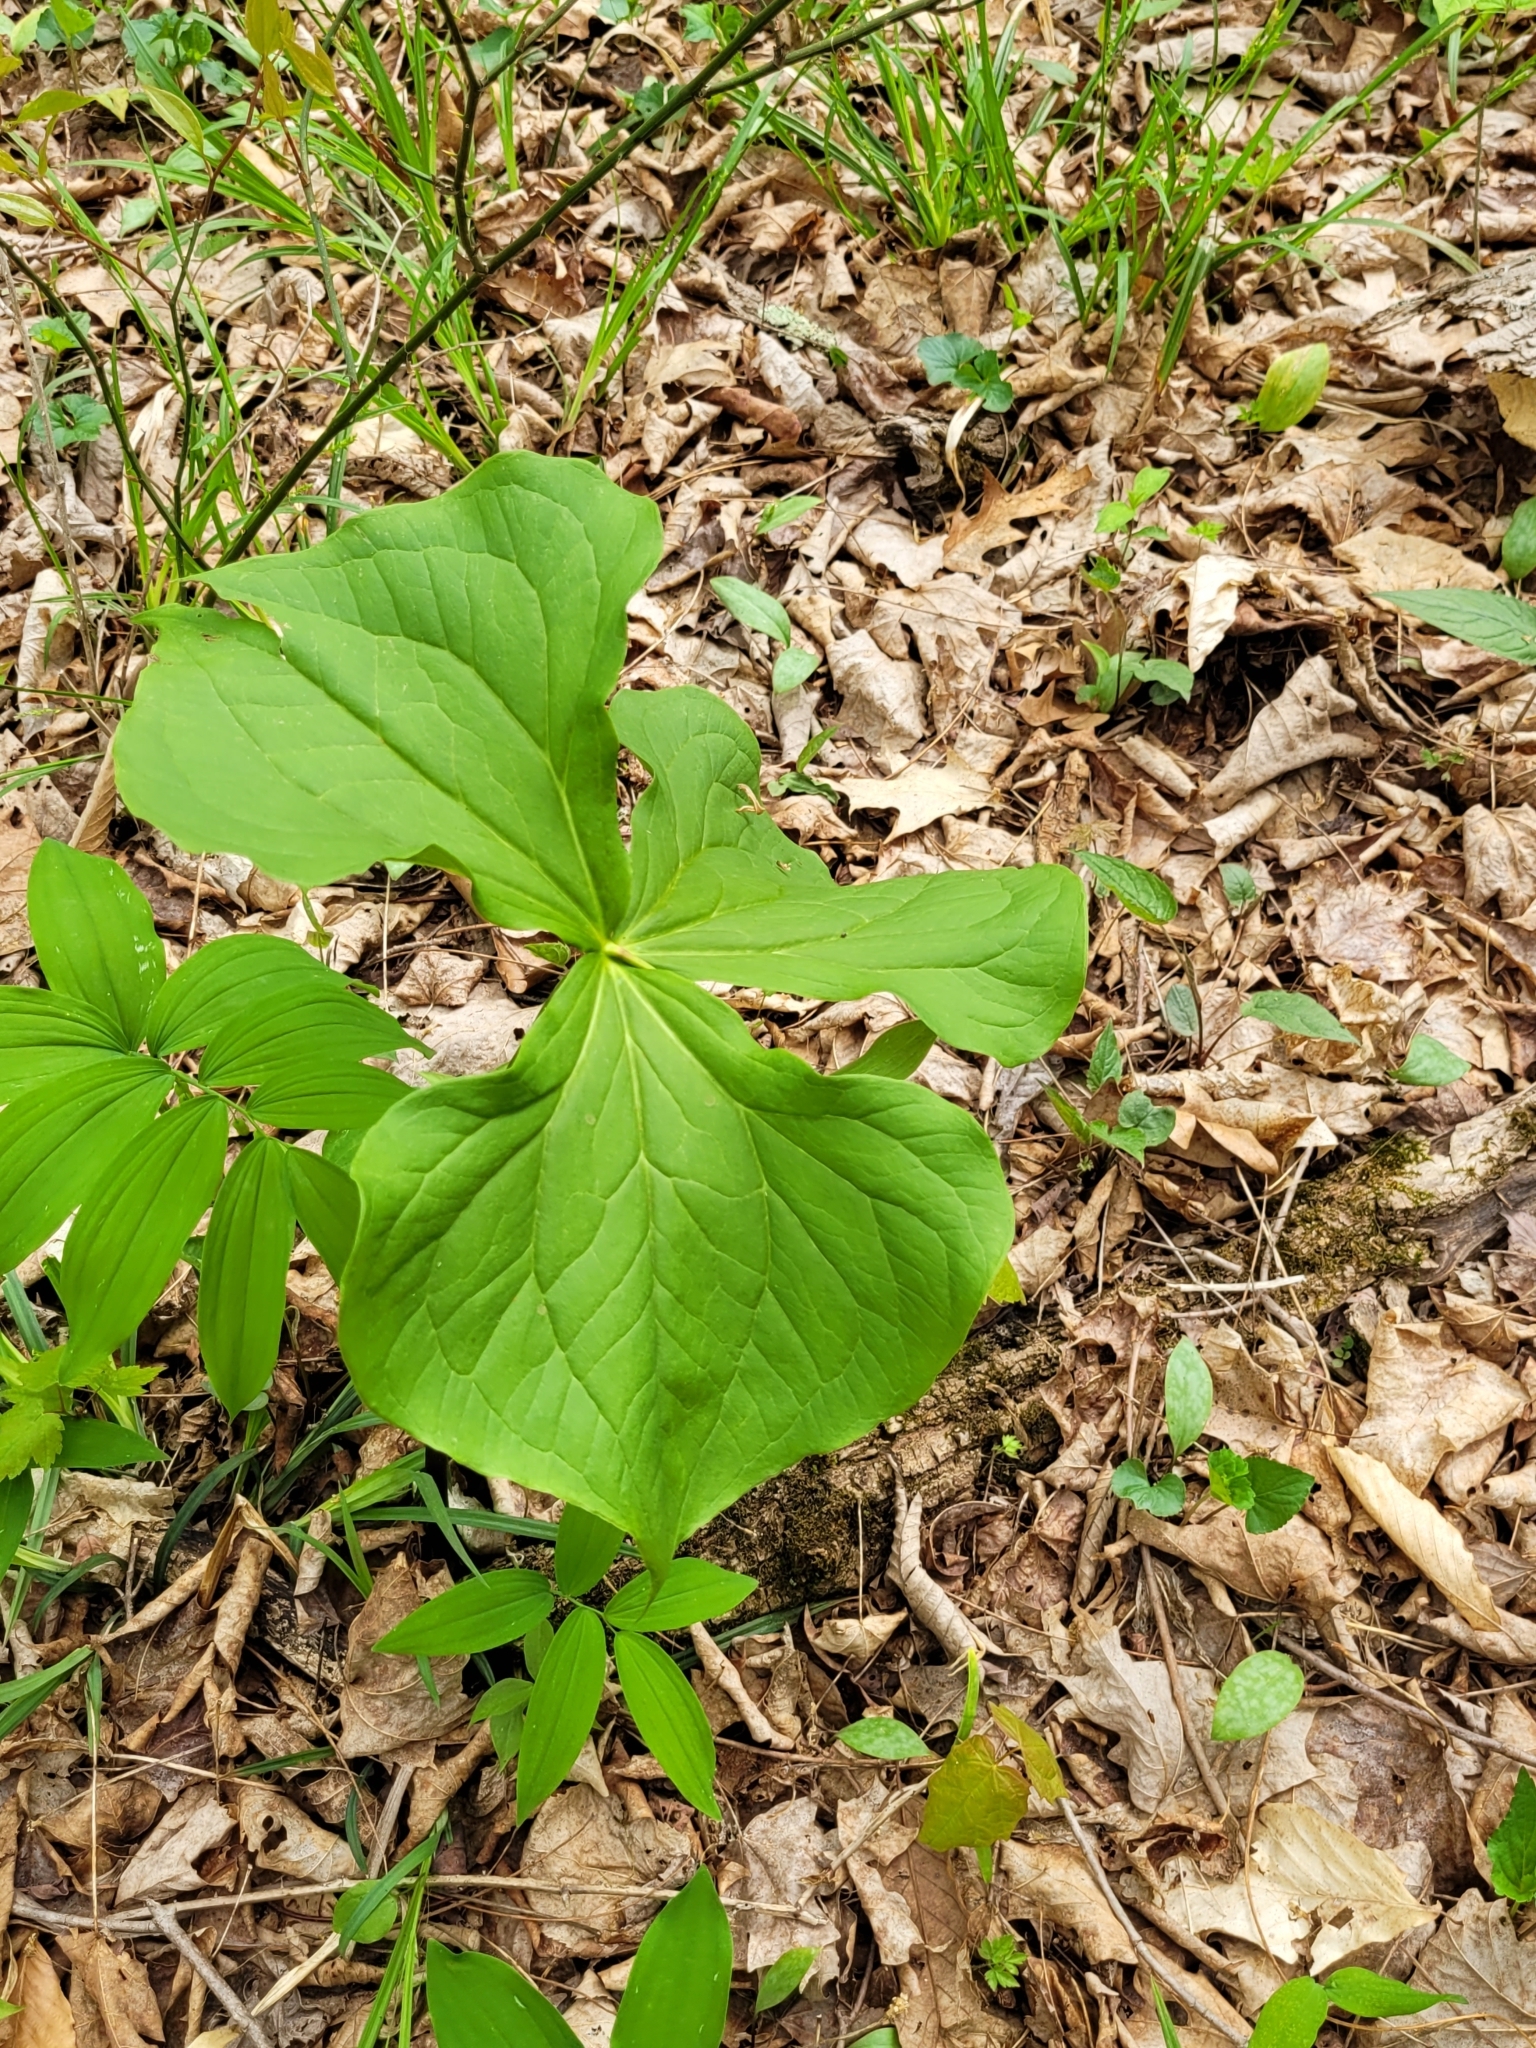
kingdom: Plantae
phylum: Tracheophyta
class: Liliopsida
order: Liliales
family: Melanthiaceae
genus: Trillium
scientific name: Trillium erectum
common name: Purple trillium
